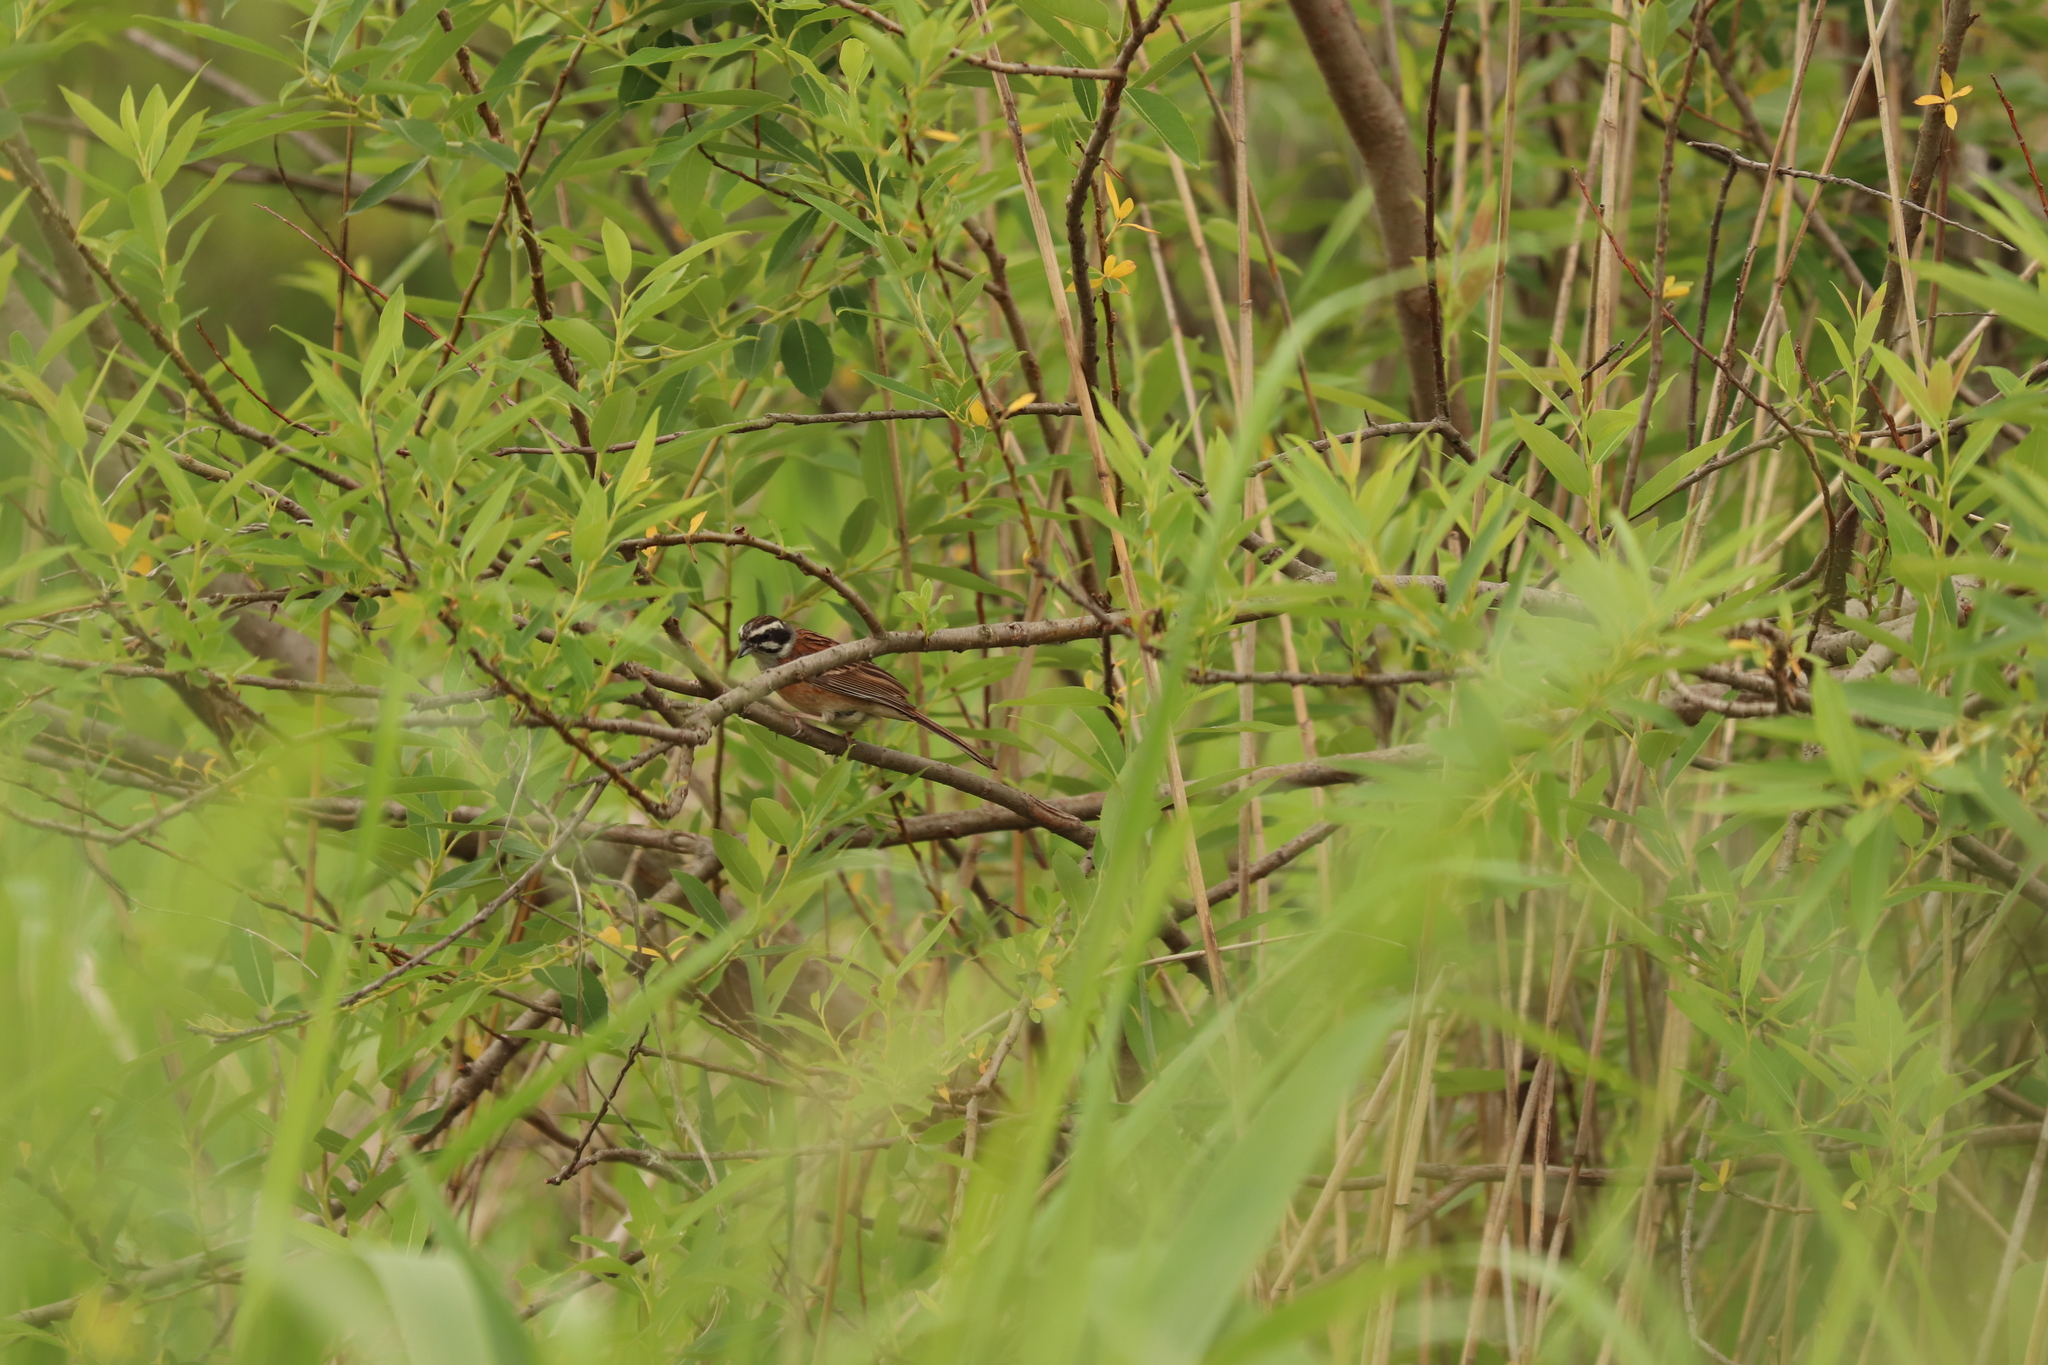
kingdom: Animalia
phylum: Chordata
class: Aves
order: Passeriformes
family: Emberizidae
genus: Emberiza
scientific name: Emberiza cioides
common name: Meadow bunting
